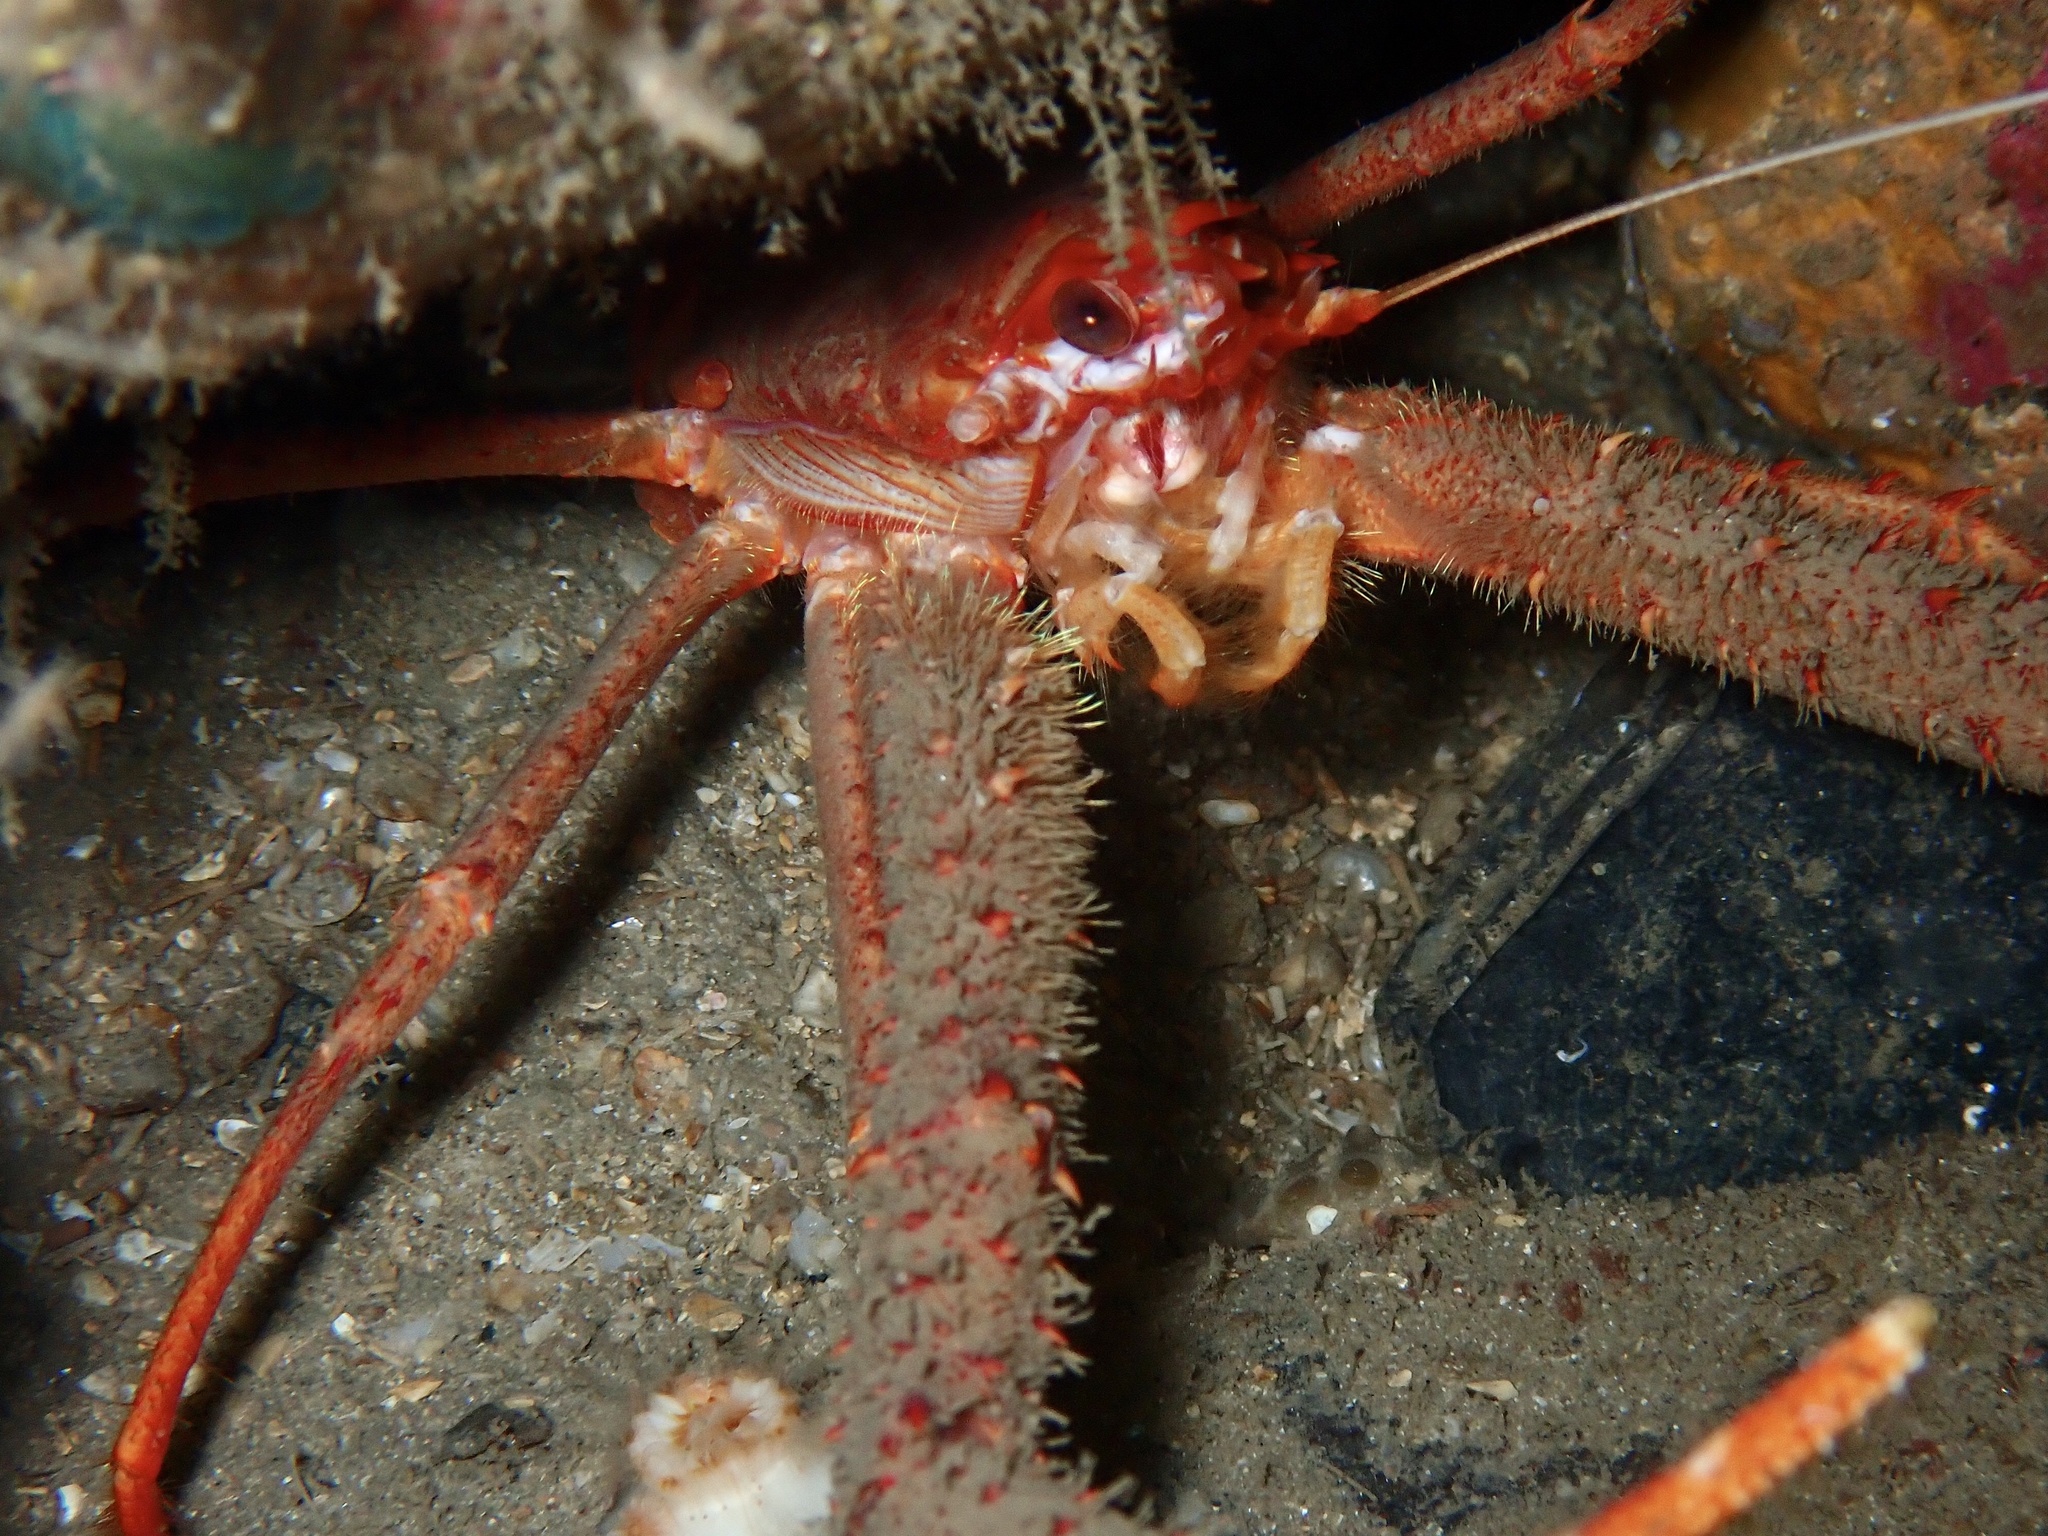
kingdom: Animalia
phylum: Arthropoda
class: Malacostraca
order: Decapoda
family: Munididae
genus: Munida
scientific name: Munida rugosa
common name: Rugose squat lobster
